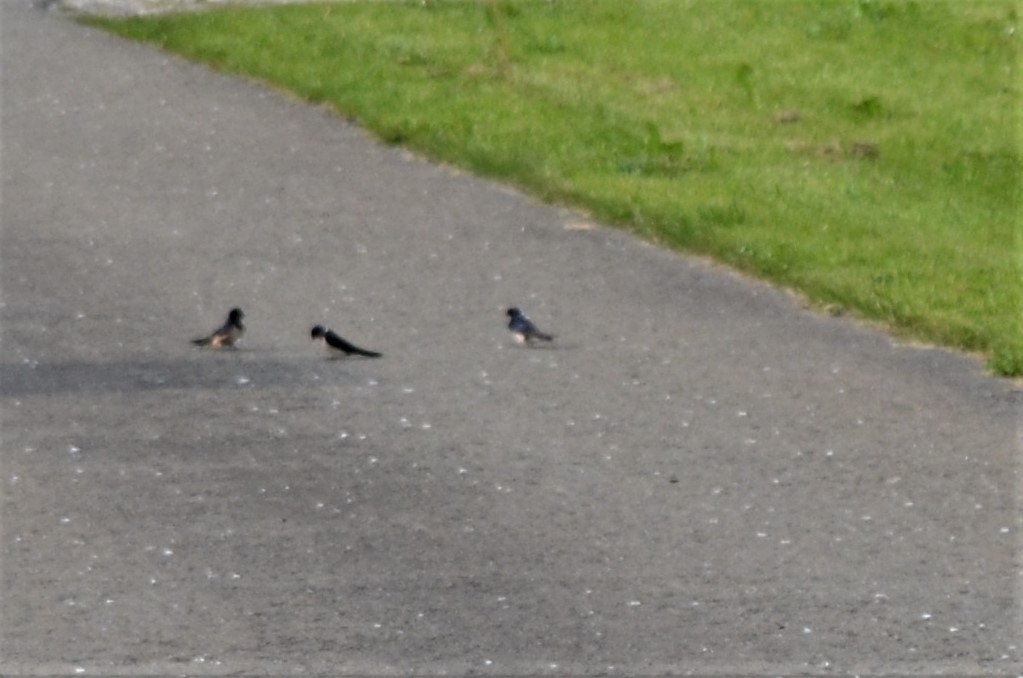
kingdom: Animalia
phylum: Chordata
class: Aves
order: Passeriformes
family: Hirundinidae
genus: Hirundo
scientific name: Hirundo rustica
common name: Barn swallow
